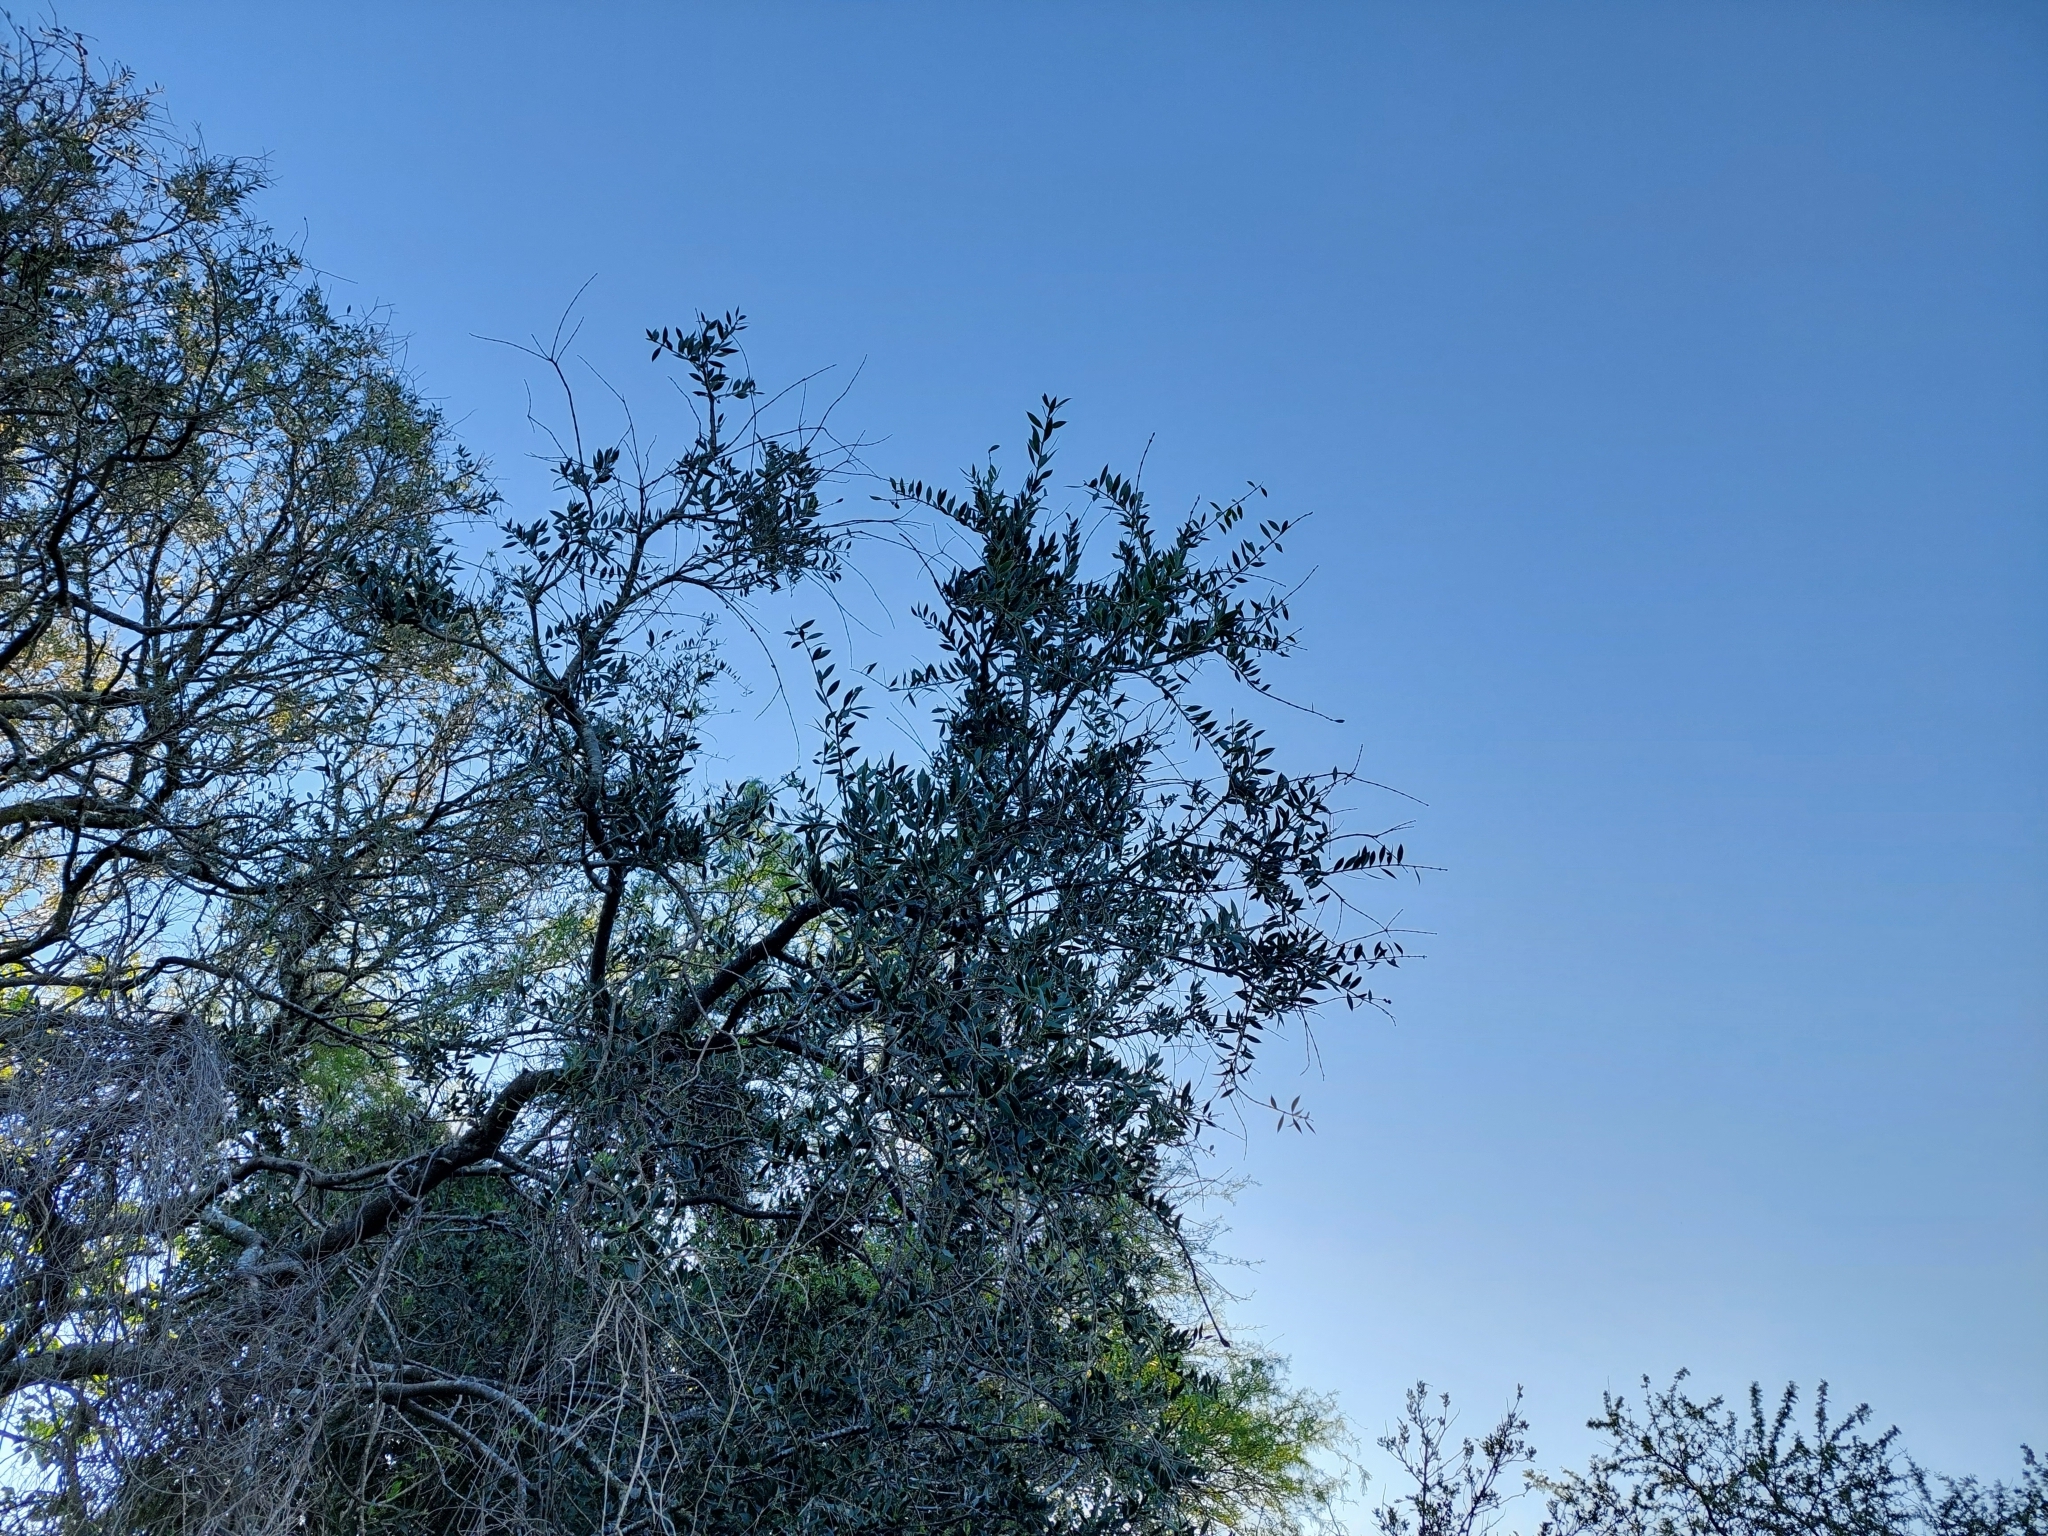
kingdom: Plantae
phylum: Tracheophyta
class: Magnoliopsida
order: Gentianales
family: Apocynaceae
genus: Aspidosperma
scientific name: Aspidosperma quebracho-blanco
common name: White quebracho
